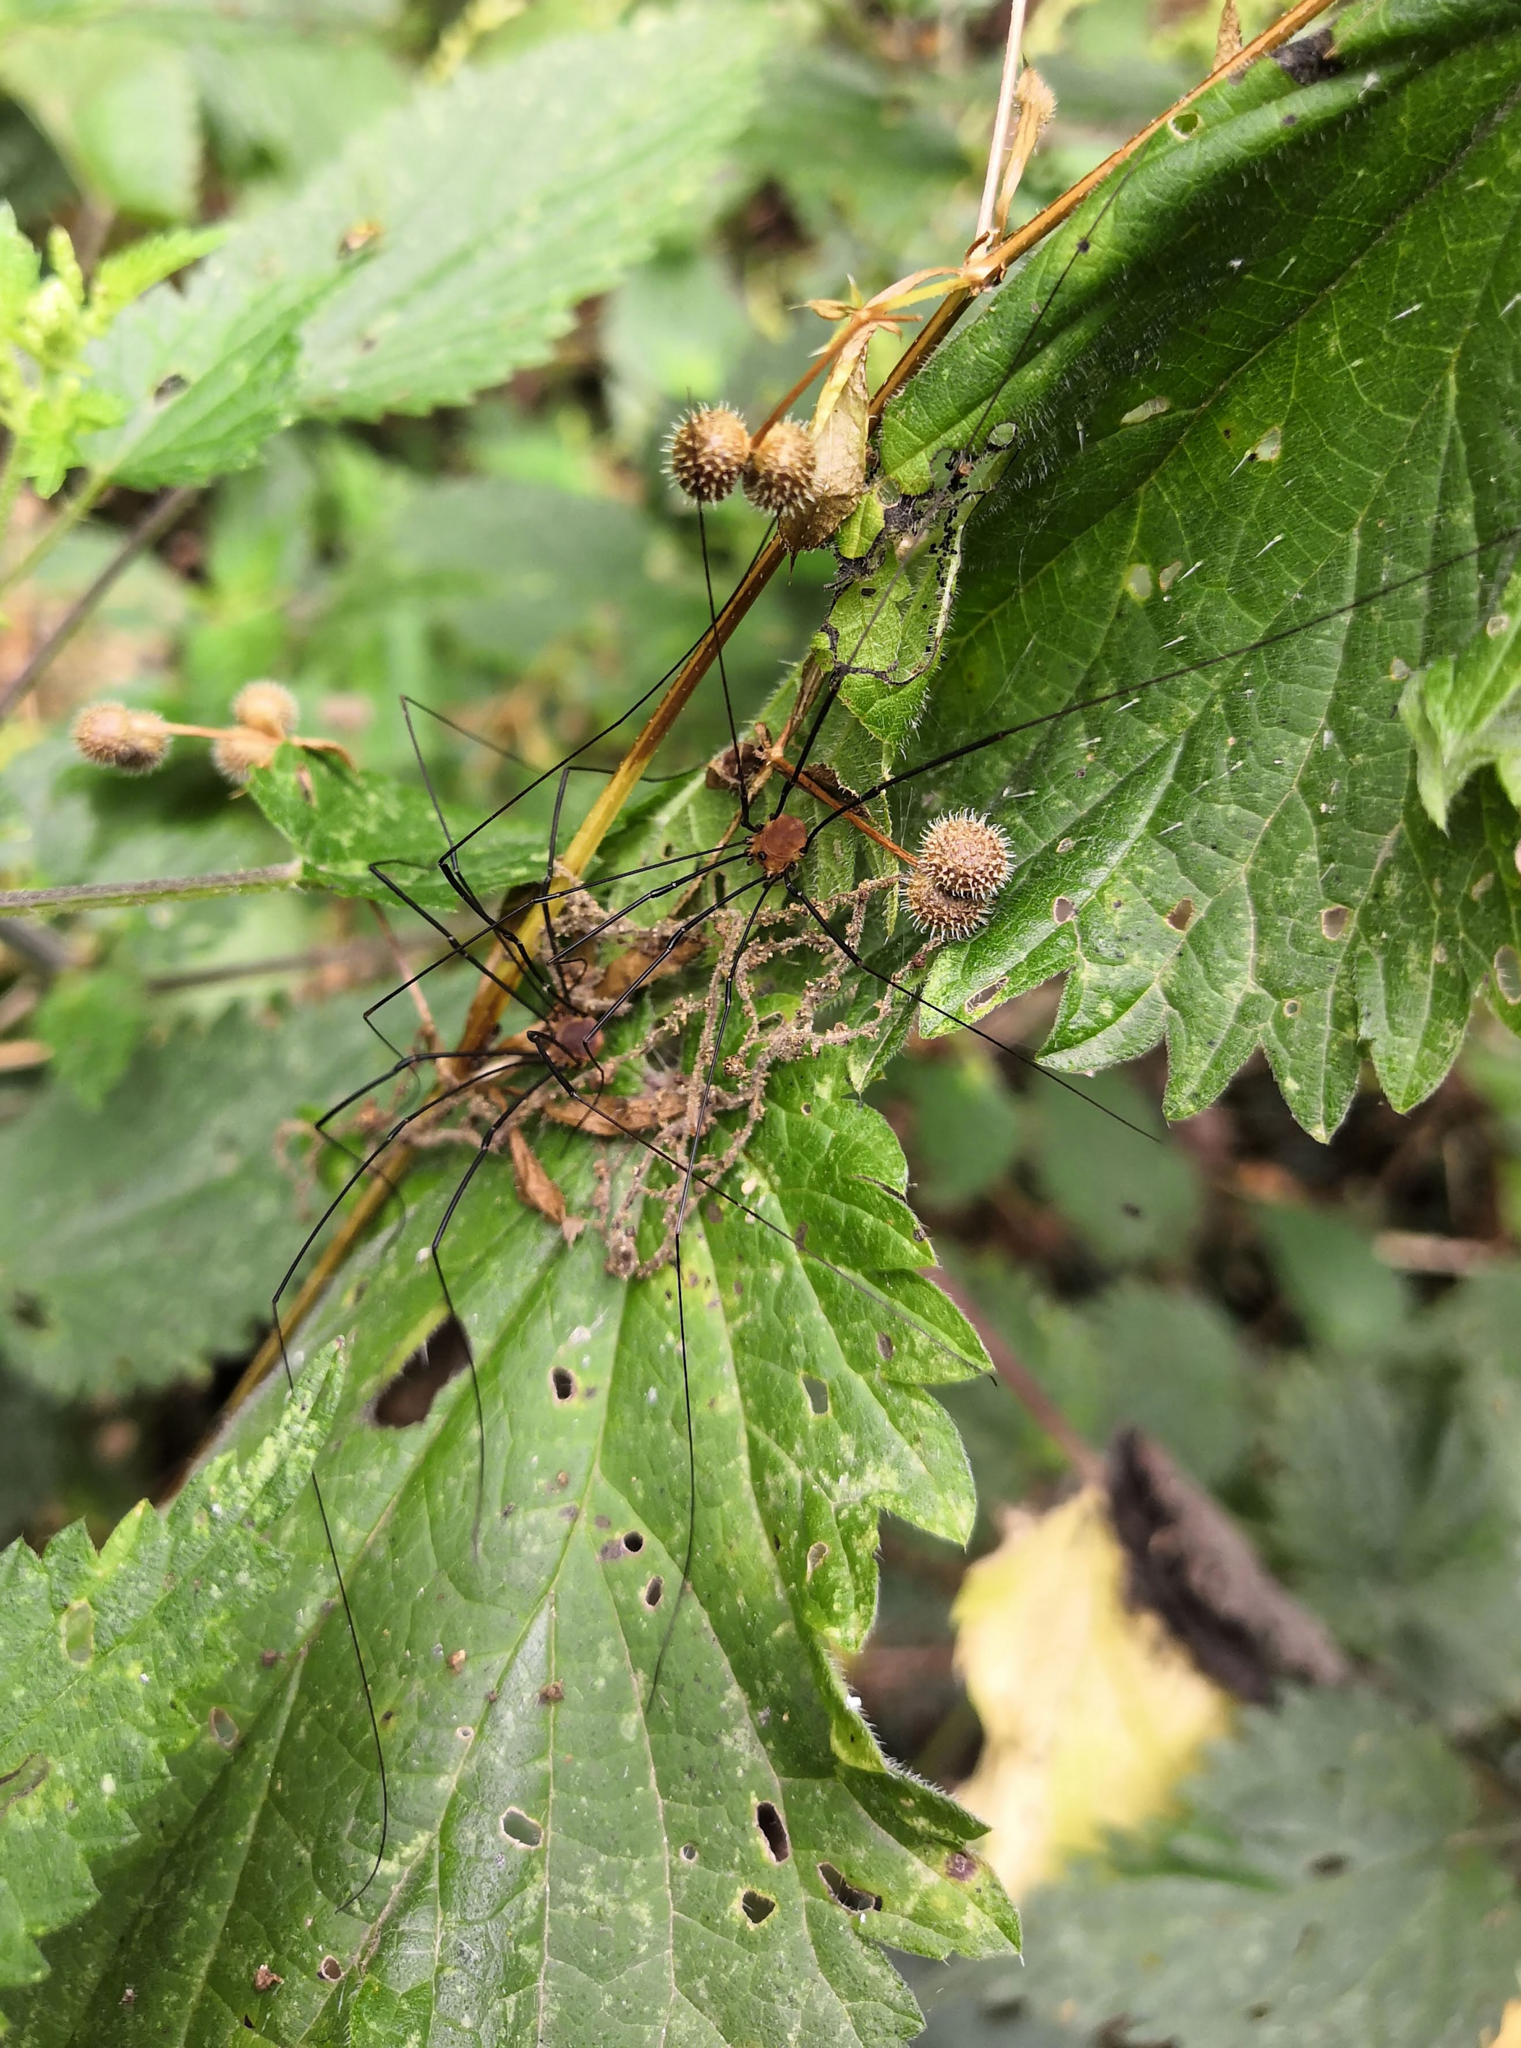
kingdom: Animalia
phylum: Arthropoda
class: Arachnida
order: Opiliones
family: Sclerosomatidae
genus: Leiobunum
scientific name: Leiobunum rotundum
